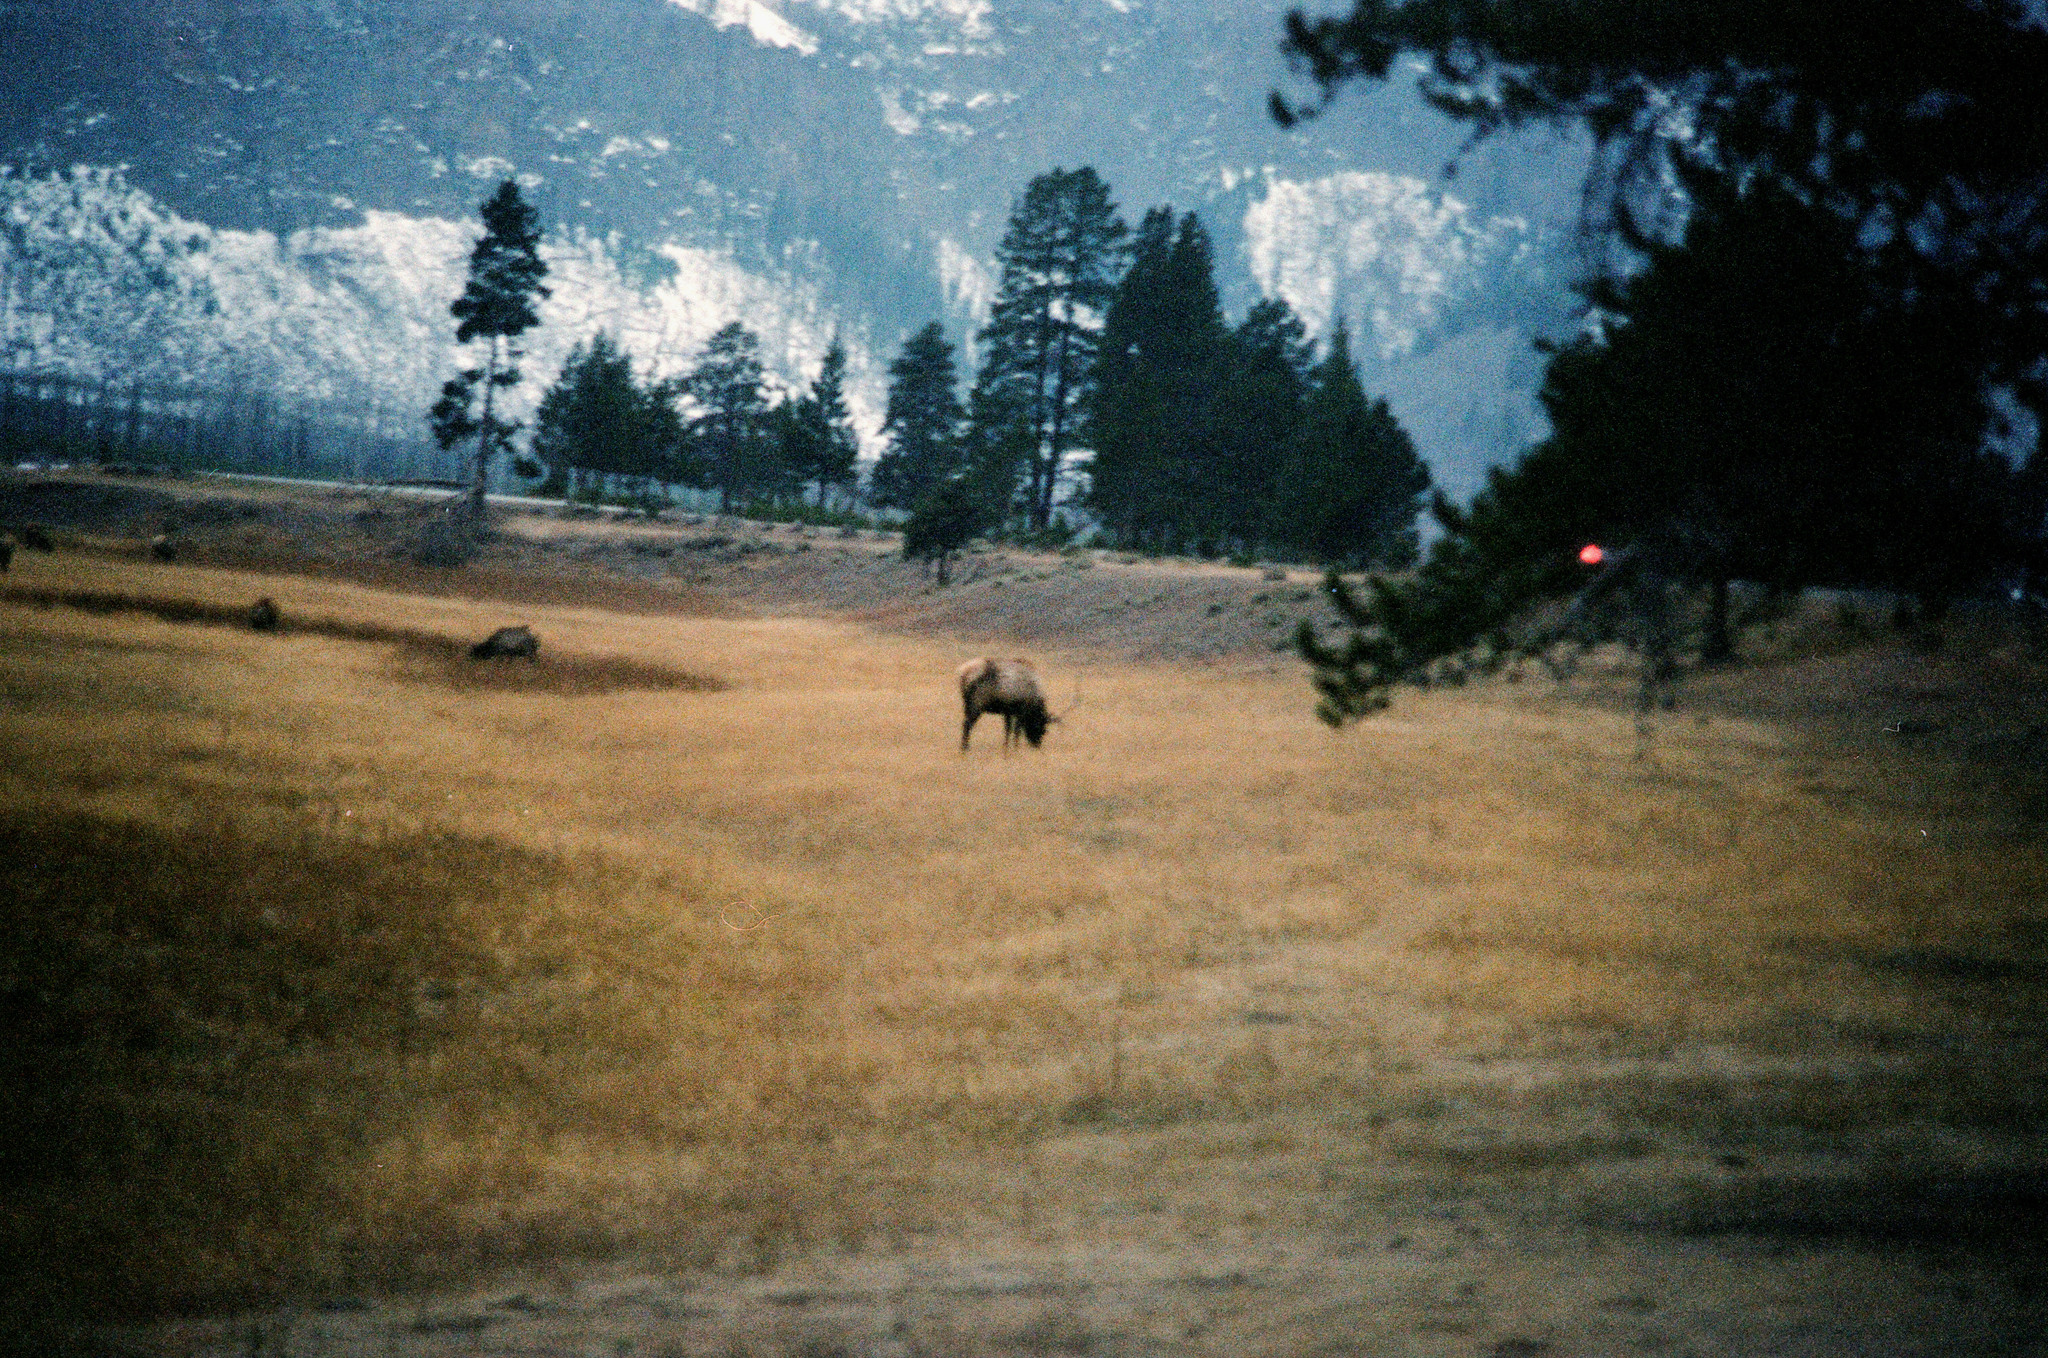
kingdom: Animalia
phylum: Chordata
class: Mammalia
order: Artiodactyla
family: Cervidae
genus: Cervus
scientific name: Cervus elaphus
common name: Red deer
